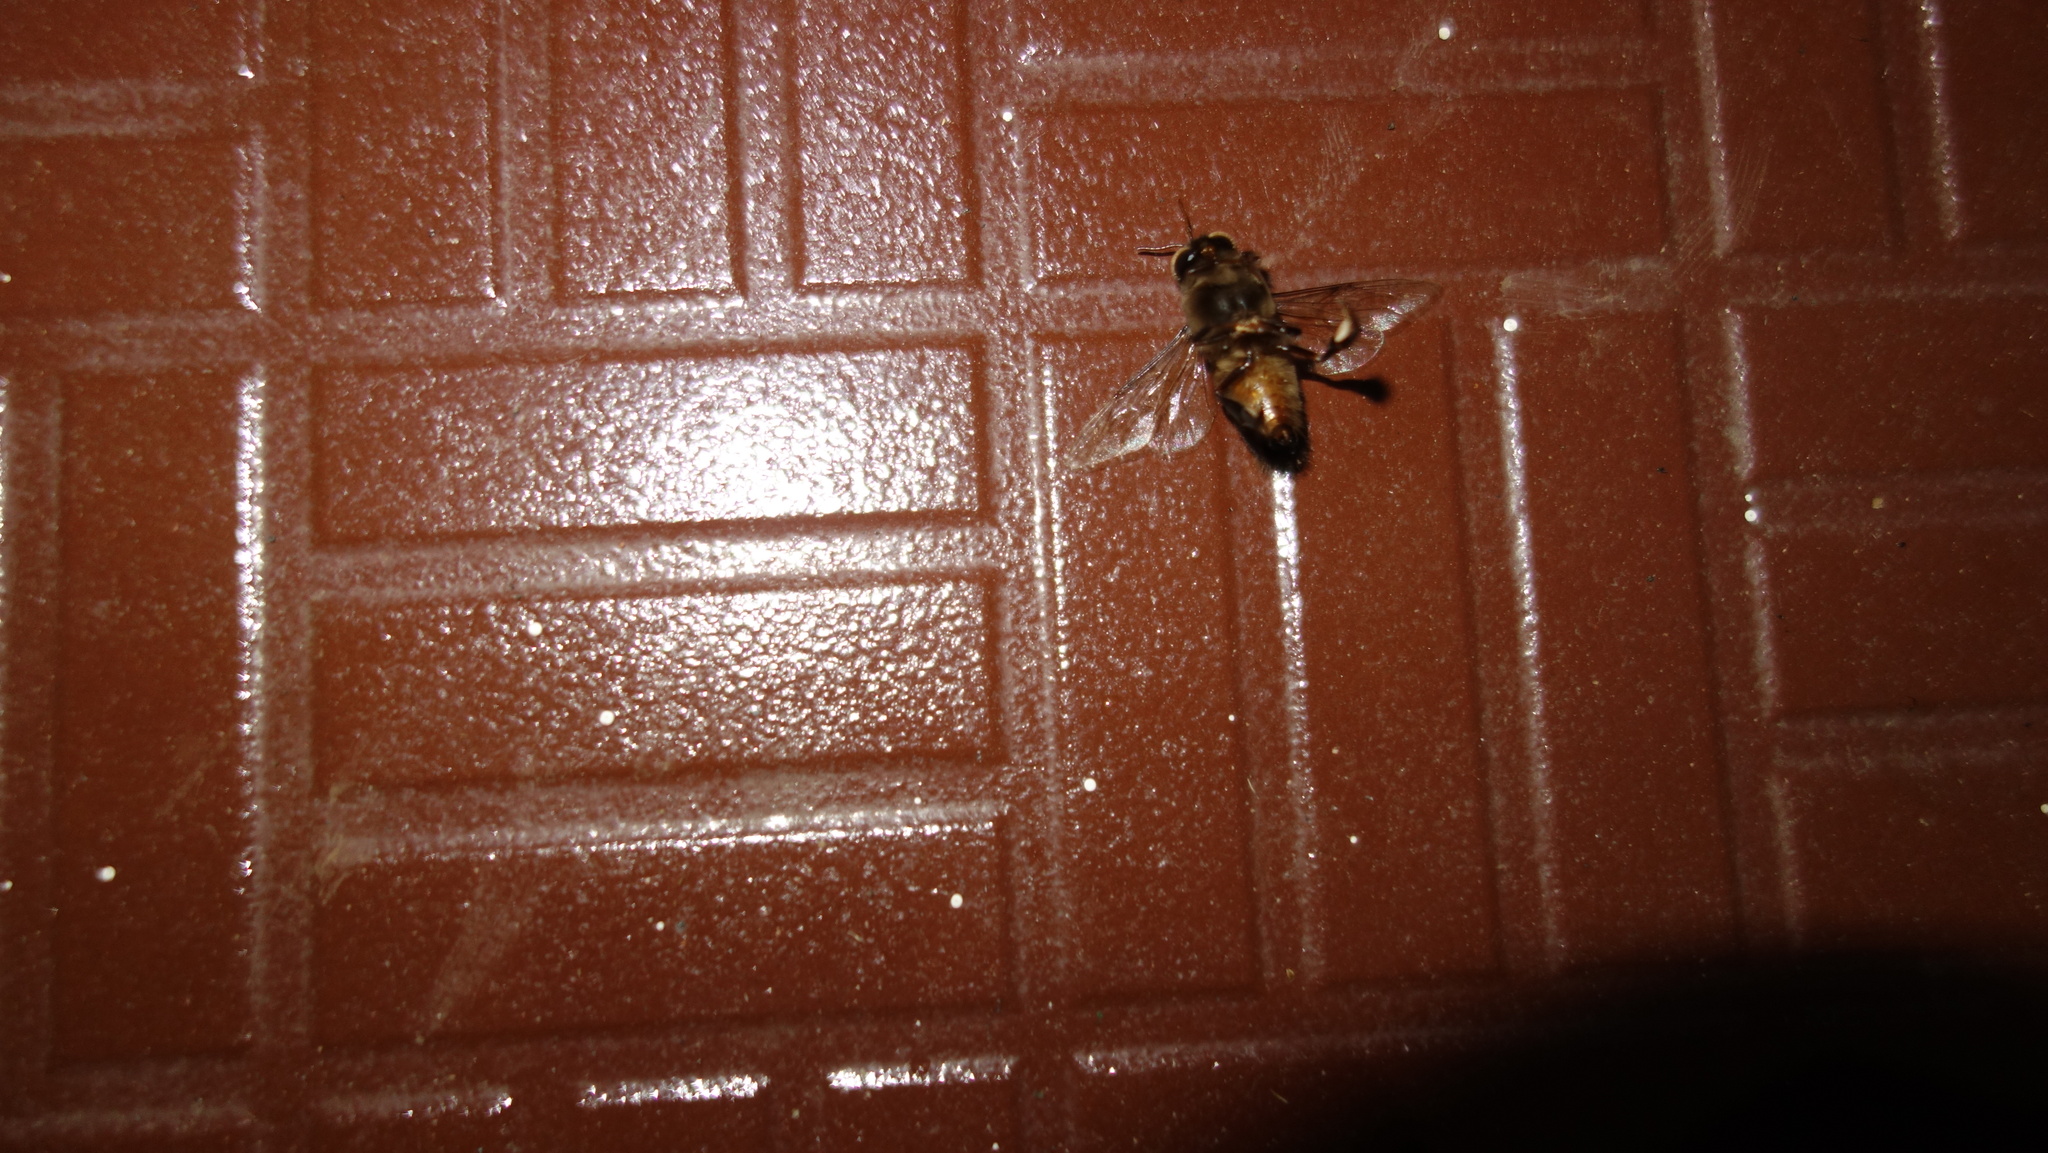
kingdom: Animalia
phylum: Arthropoda
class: Insecta
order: Hymenoptera
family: Apidae
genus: Apis
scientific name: Apis cerana
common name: Honey bee
